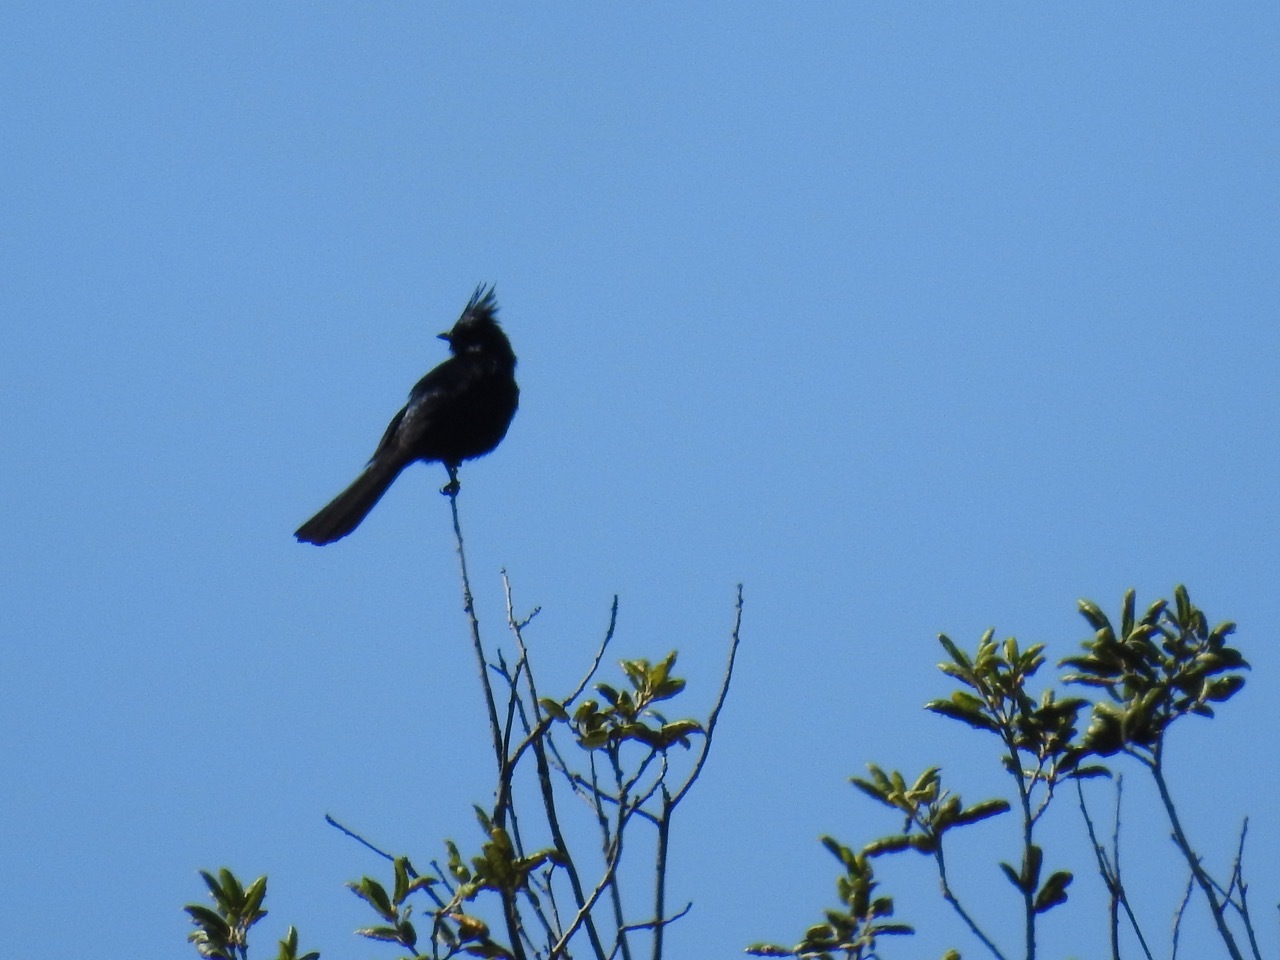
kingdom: Animalia
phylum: Chordata
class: Aves
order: Passeriformes
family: Ptilogonatidae
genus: Phainopepla
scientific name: Phainopepla nitens
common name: Phainopepla
